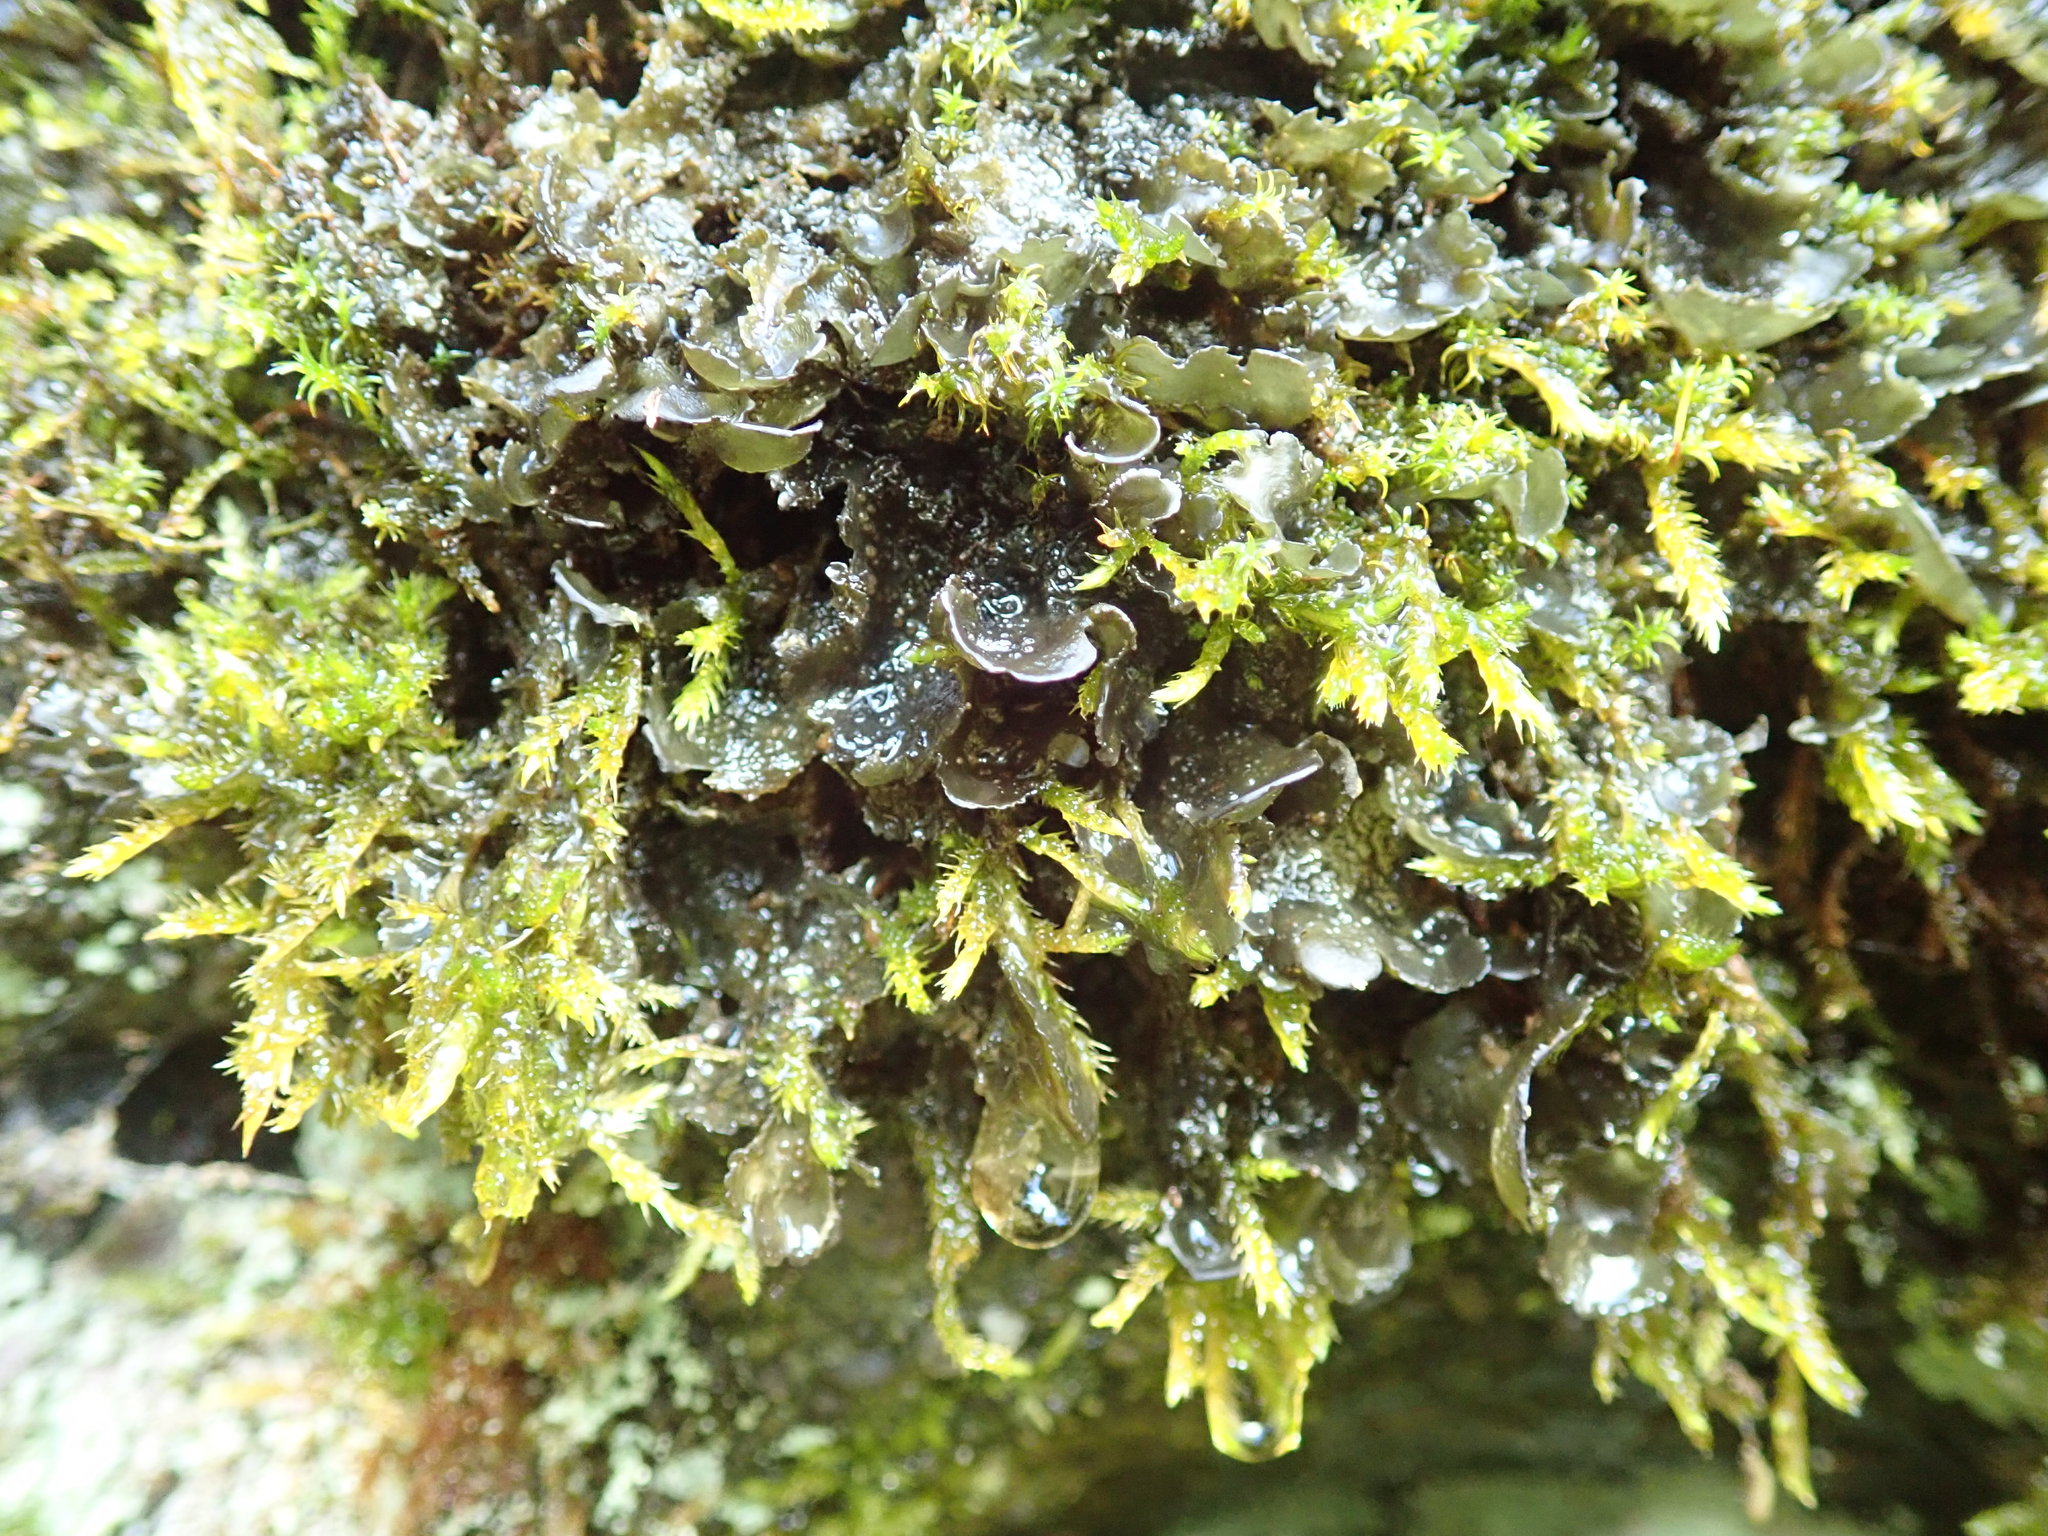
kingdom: Fungi
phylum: Ascomycota
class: Lecanoromycetes
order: Peltigerales
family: Collemataceae
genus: Scytinium
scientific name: Scytinium platynum
